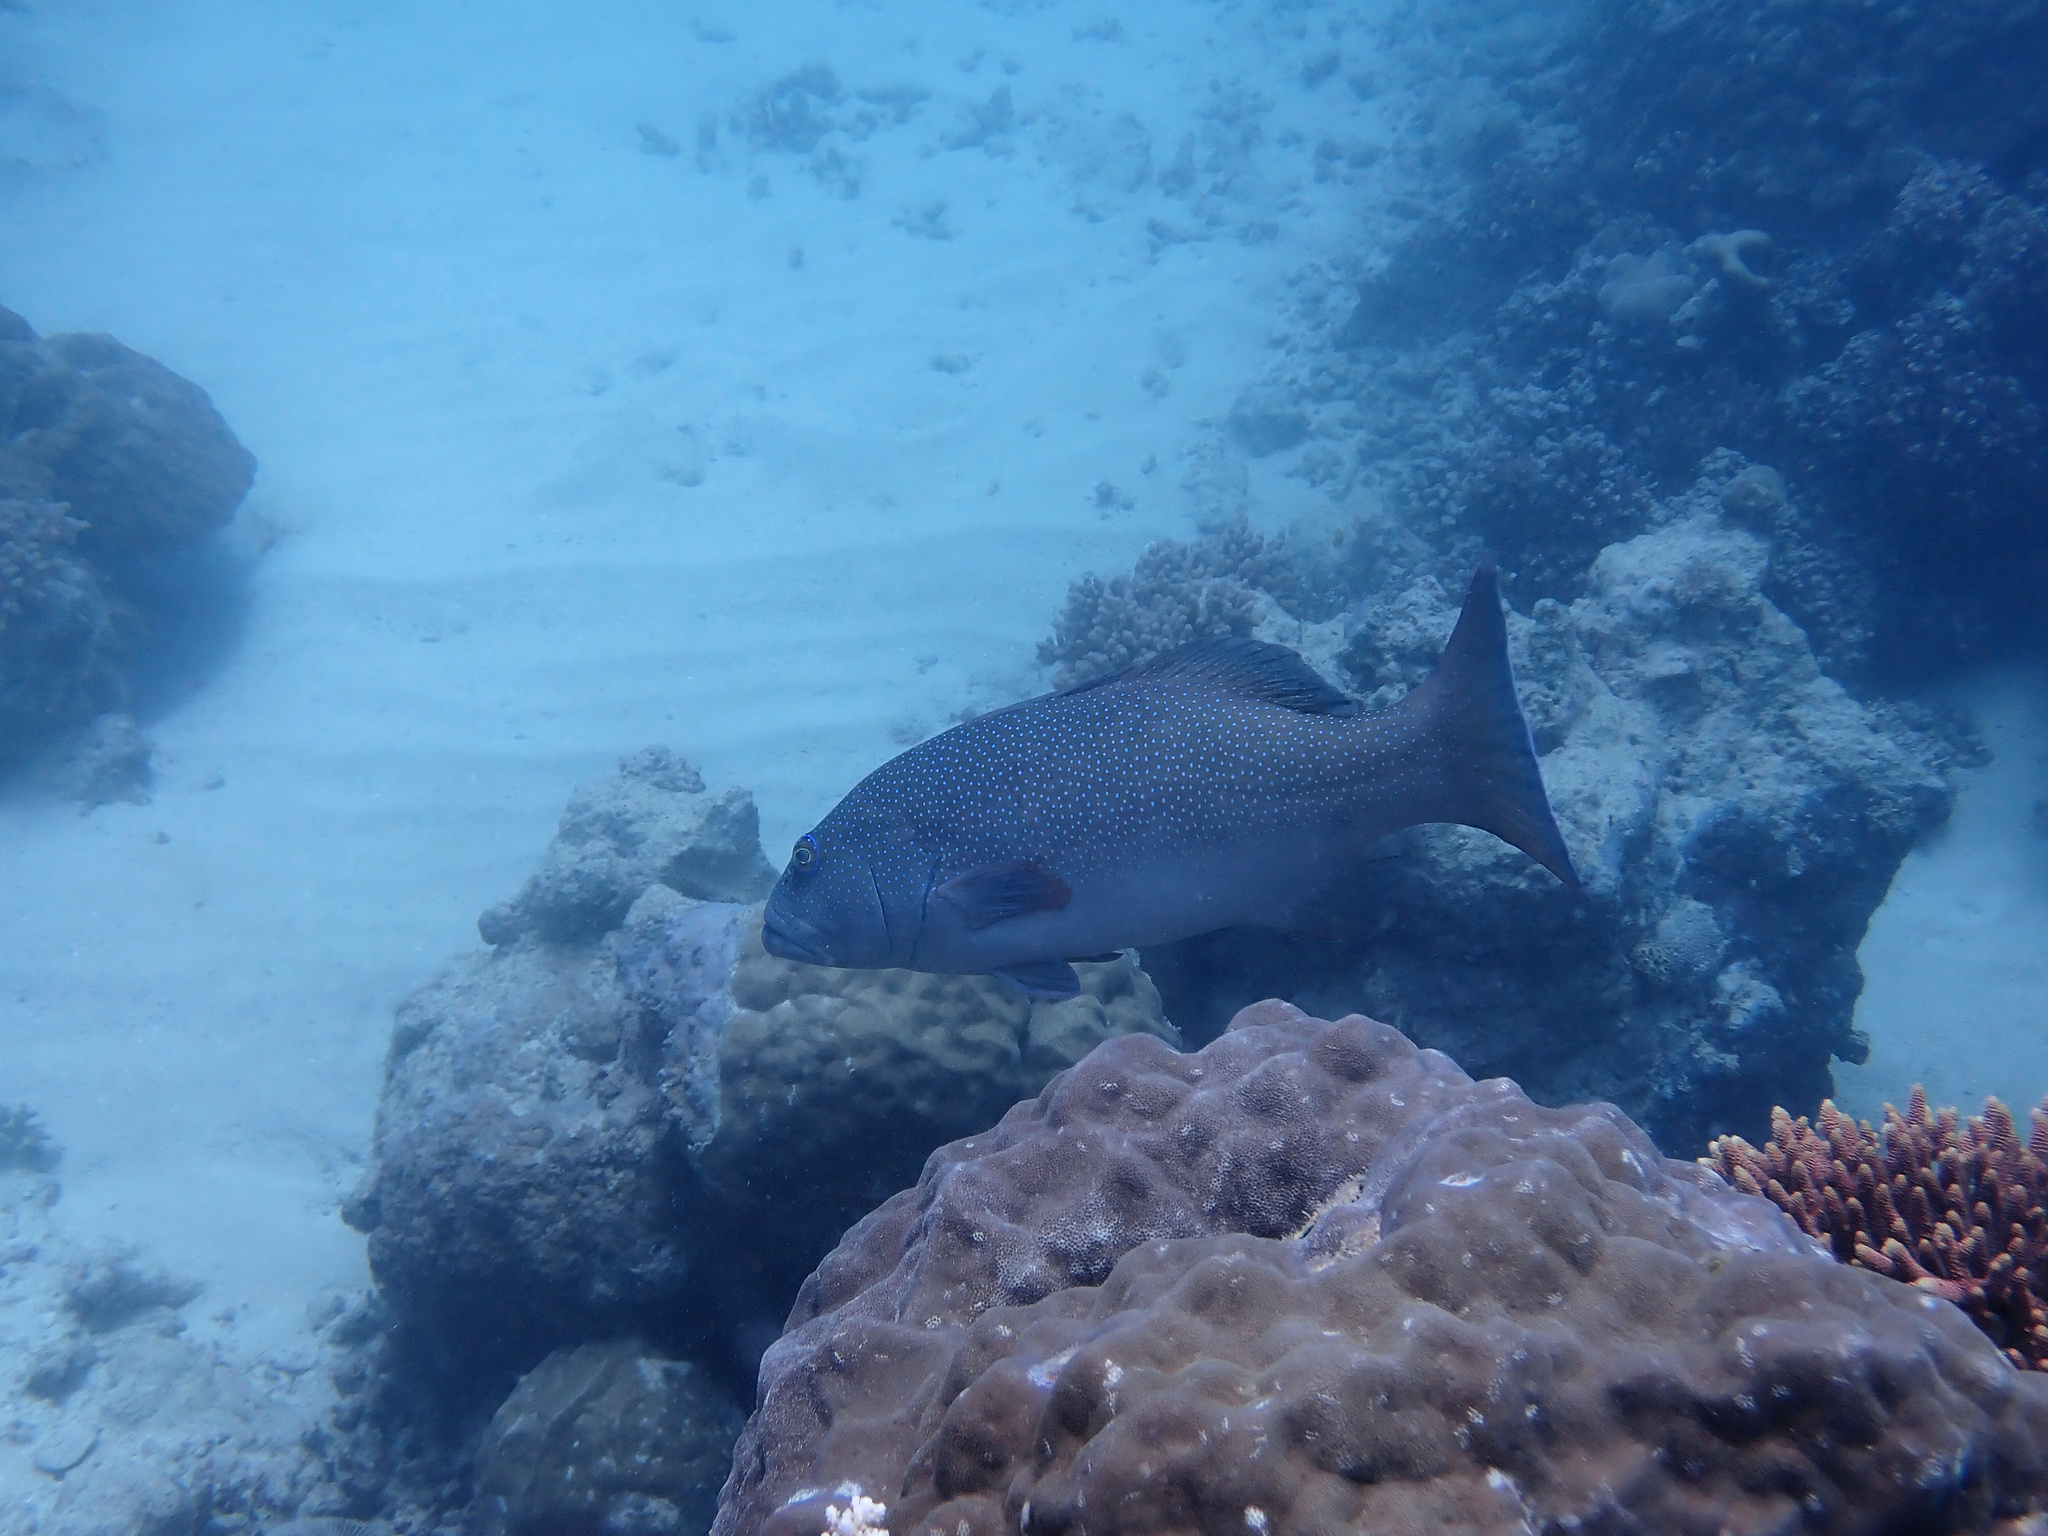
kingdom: Animalia
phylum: Chordata
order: Perciformes
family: Serranidae
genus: Plectropomus
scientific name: Plectropomus leopardus
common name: Coral trout
